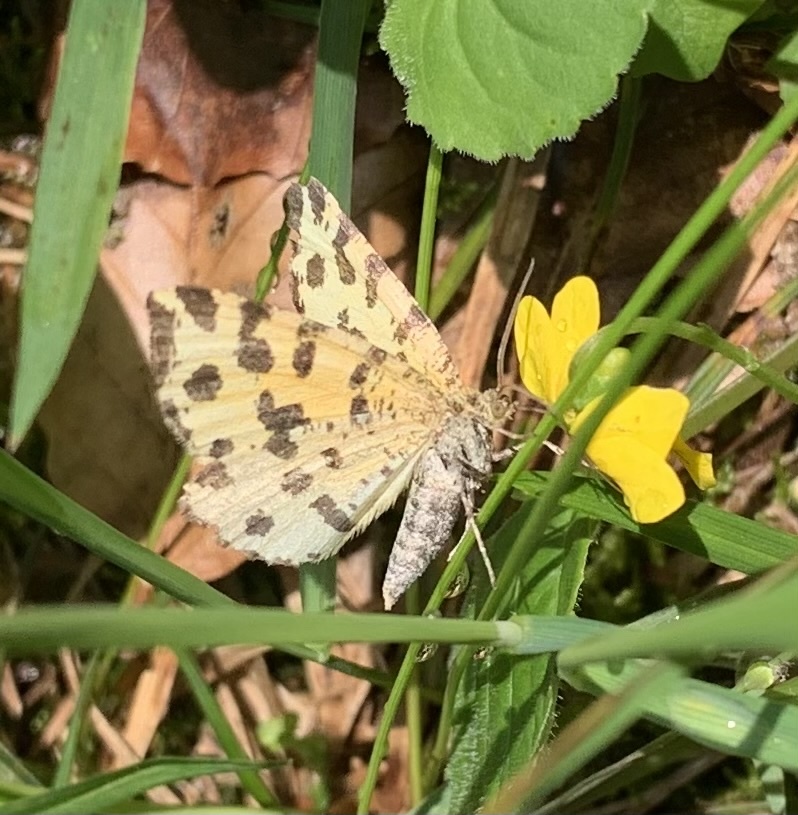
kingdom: Animalia
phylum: Arthropoda
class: Insecta
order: Lepidoptera
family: Geometridae
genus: Pseudopanthera
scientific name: Pseudopanthera macularia
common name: Speckled yellow
